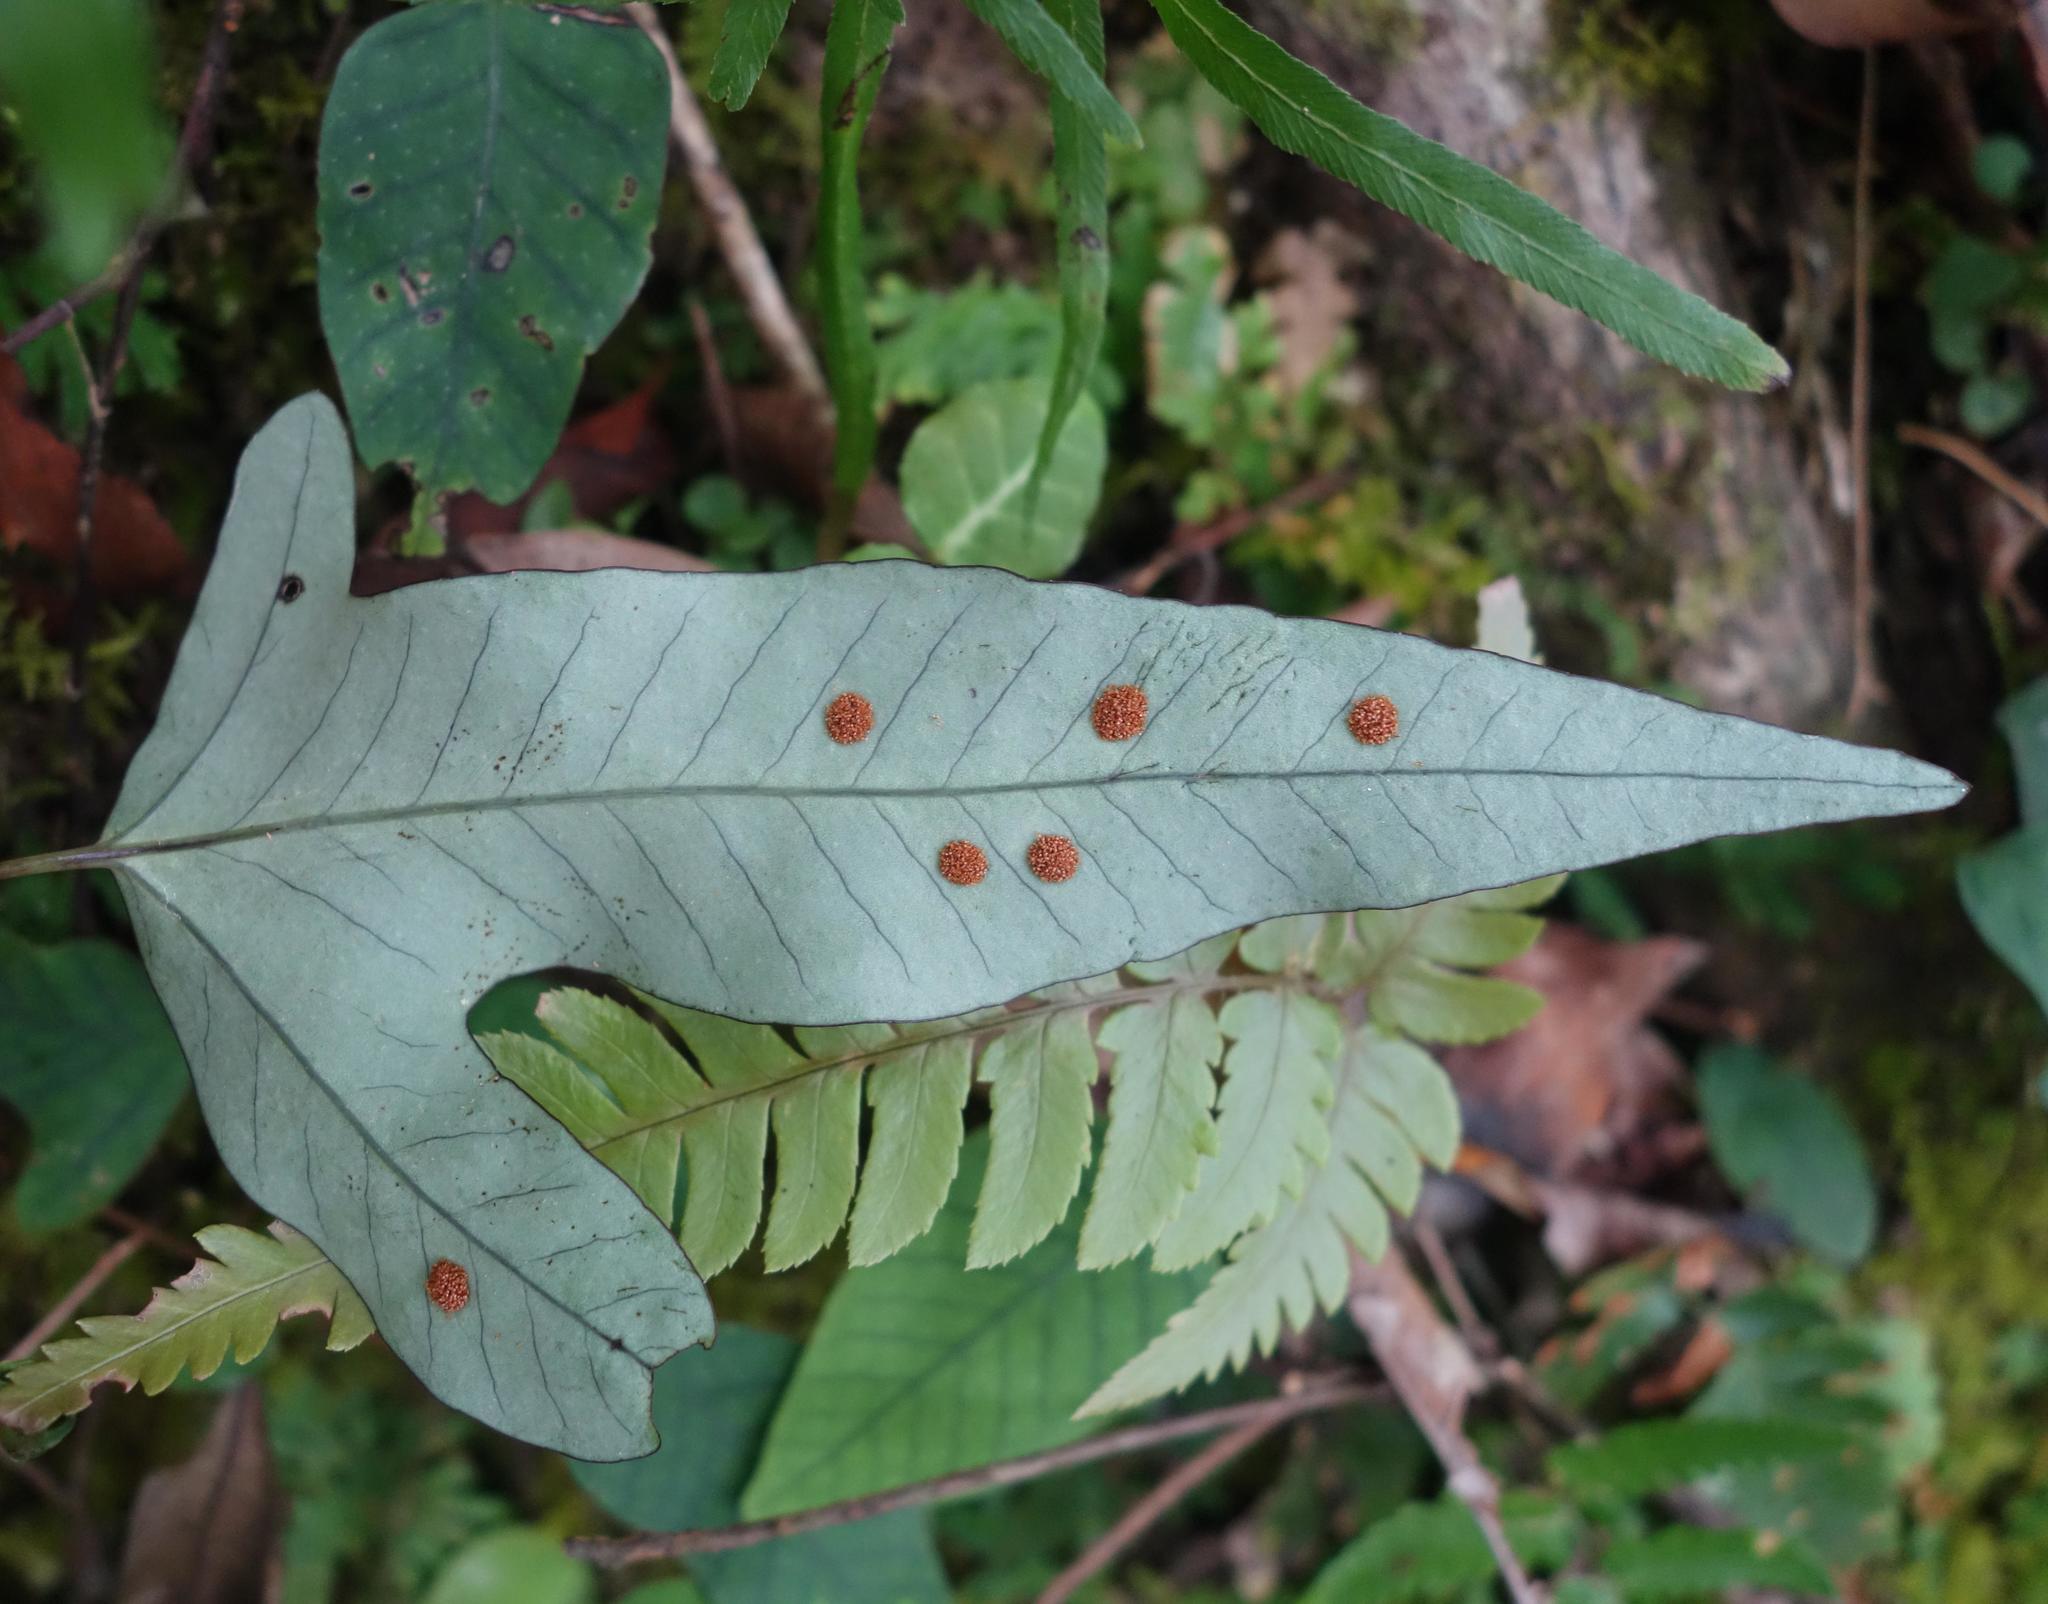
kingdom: Plantae
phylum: Tracheophyta
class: Polypodiopsida
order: Polypodiales
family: Polypodiaceae
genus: Selliguea
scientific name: Selliguea hastata
